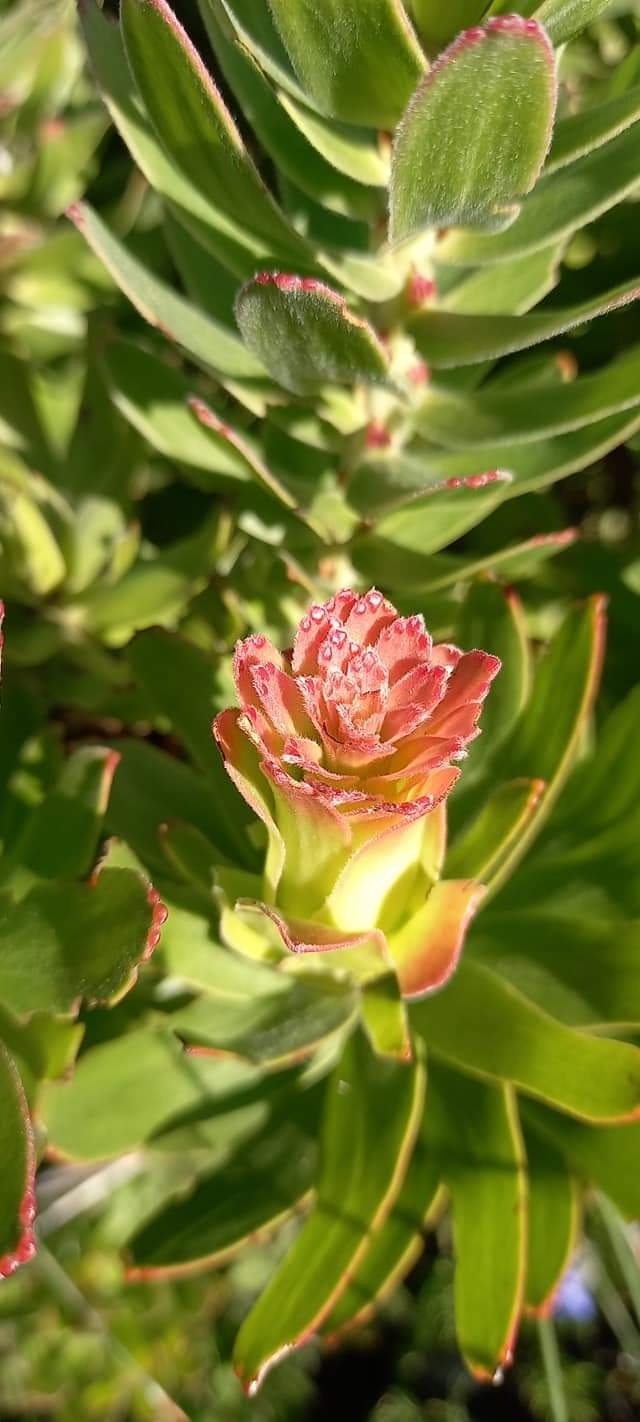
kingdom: Plantae
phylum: Tracheophyta
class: Magnoliopsida
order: Proteales
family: Proteaceae
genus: Mimetes
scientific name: Mimetes cucullatus
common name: Common pagoda
